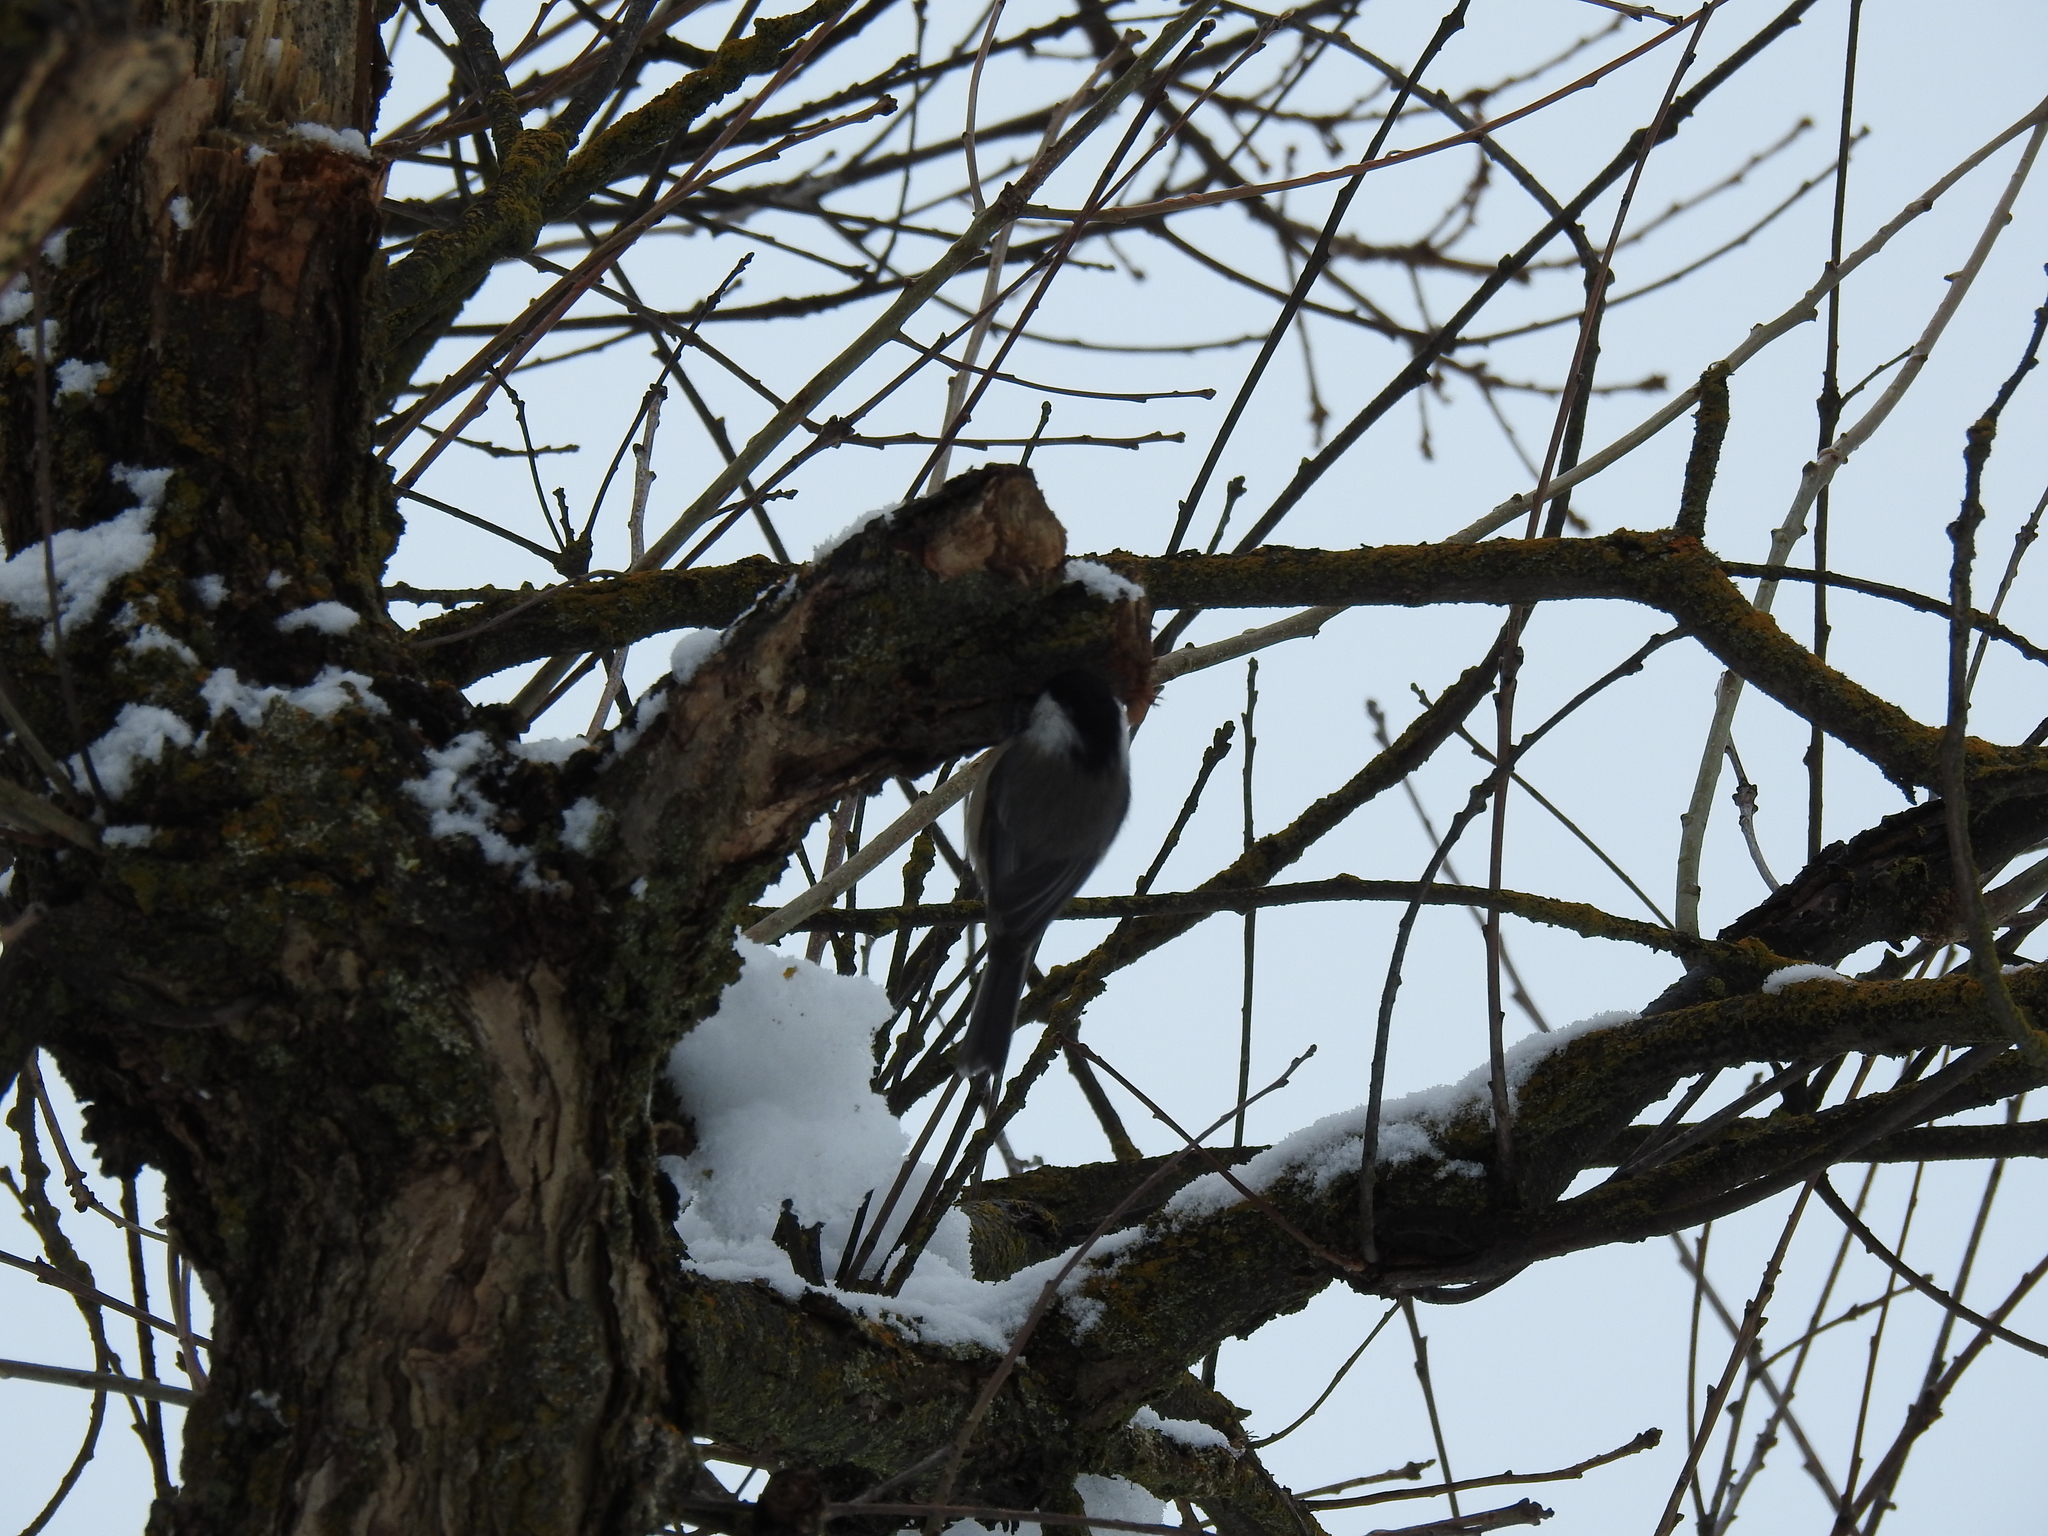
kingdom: Animalia
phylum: Chordata
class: Aves
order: Passeriformes
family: Paridae
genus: Poecile
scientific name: Poecile atricapillus
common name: Black-capped chickadee
